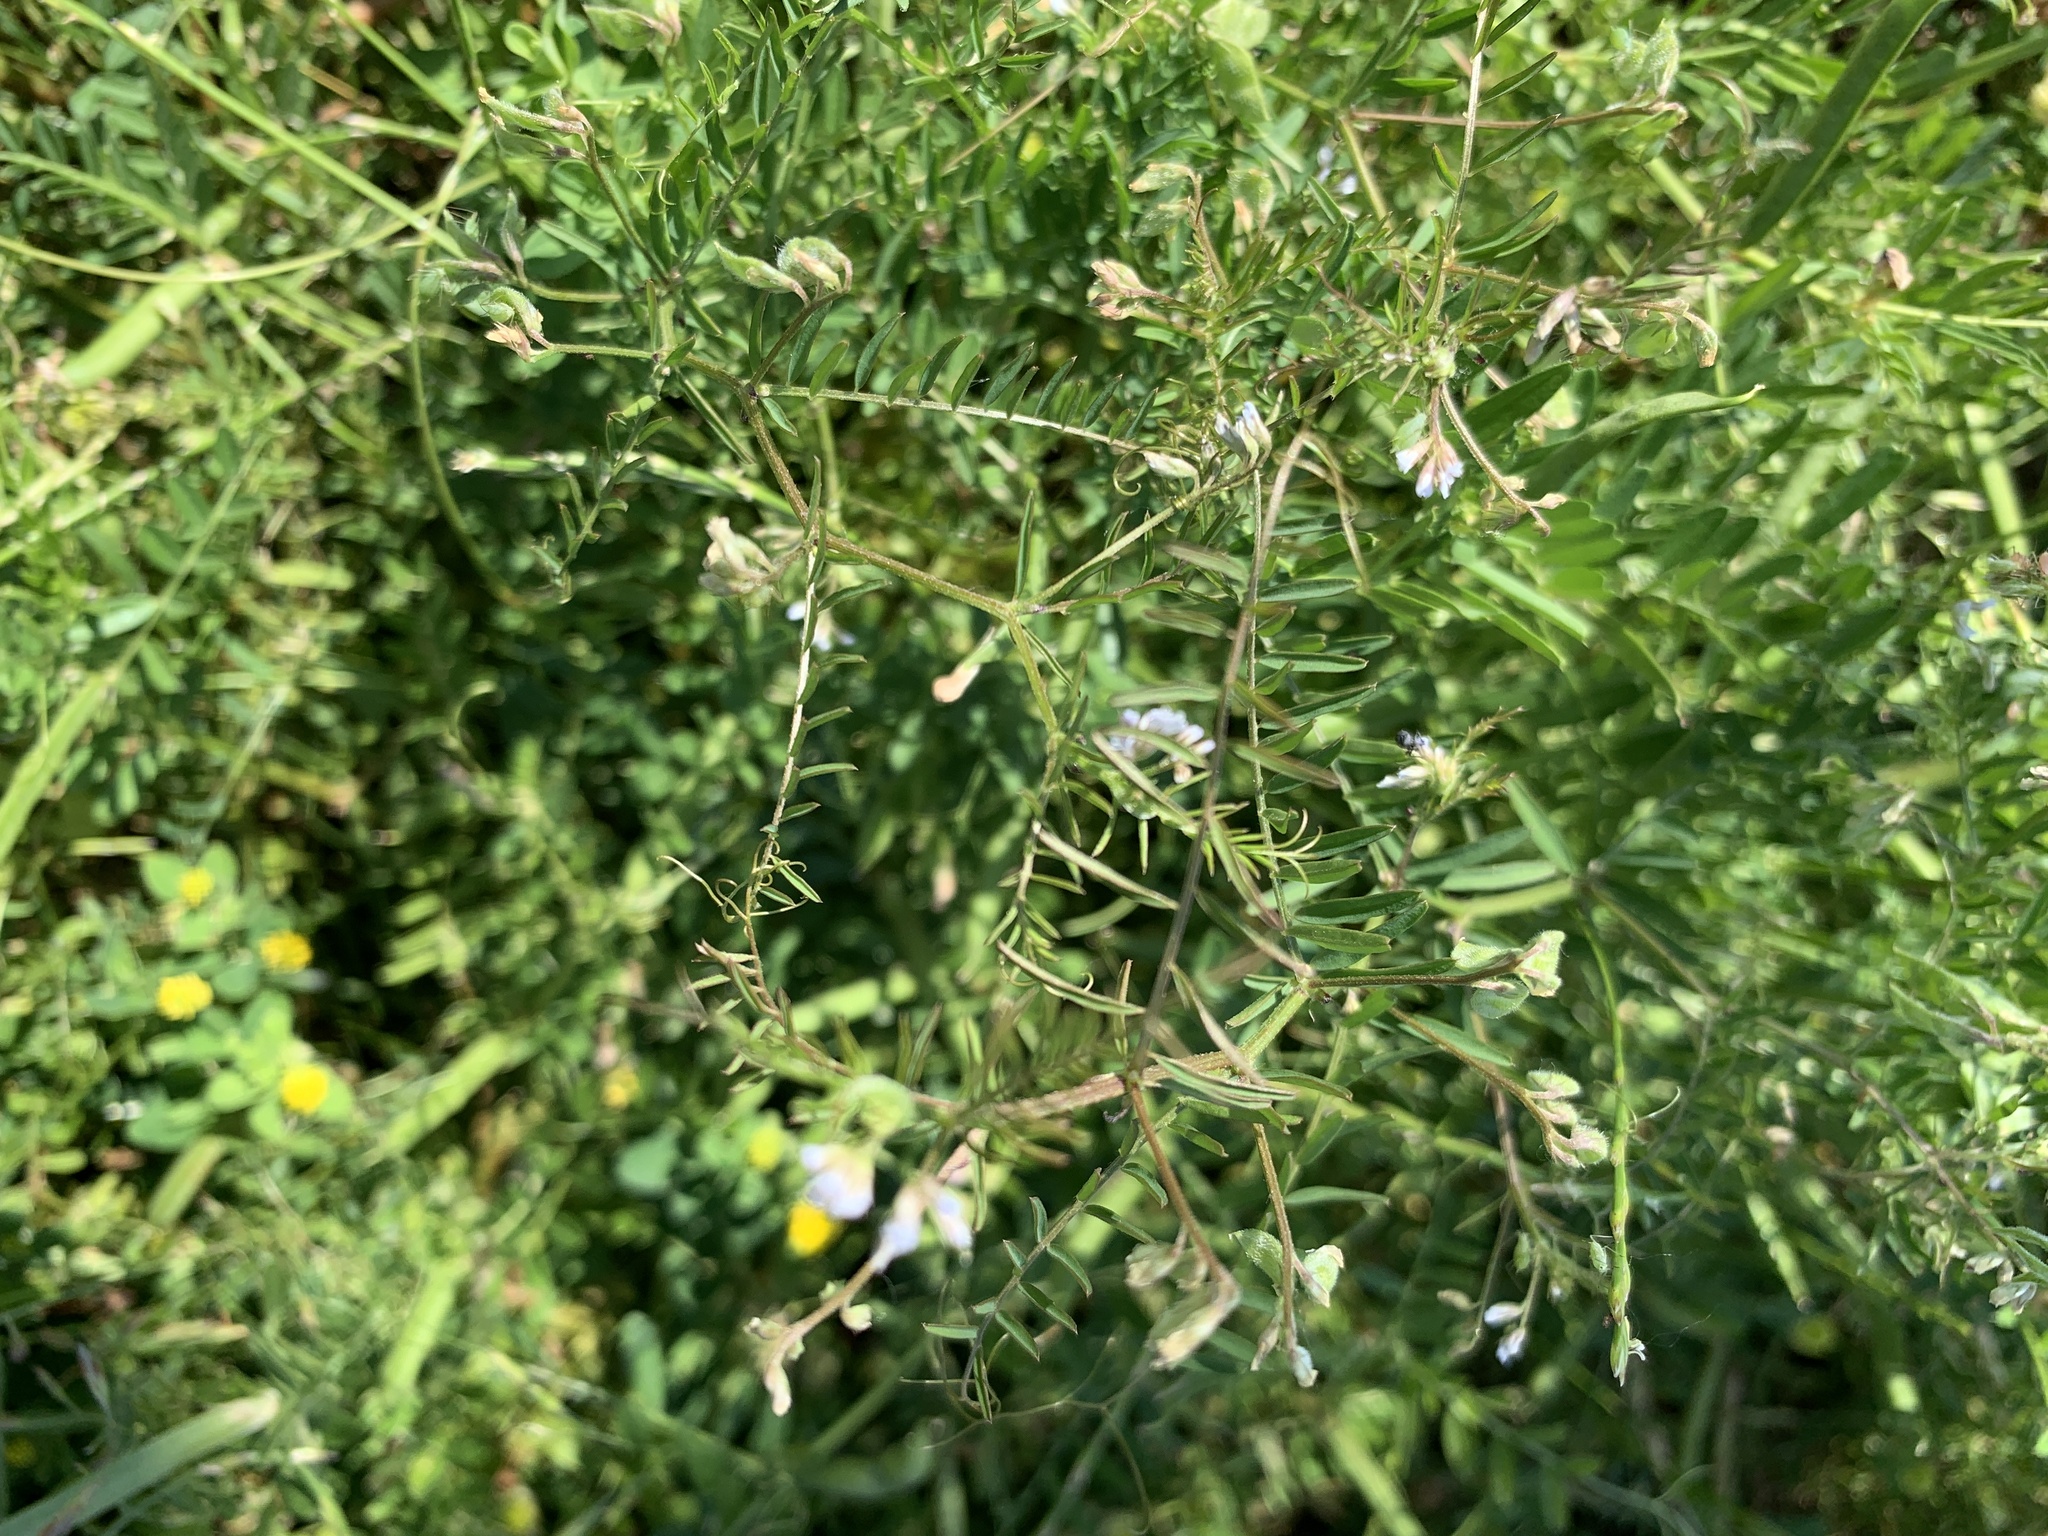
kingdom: Plantae
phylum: Tracheophyta
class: Magnoliopsida
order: Fabales
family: Fabaceae
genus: Vicia
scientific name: Vicia hirsuta
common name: Tiny vetch
